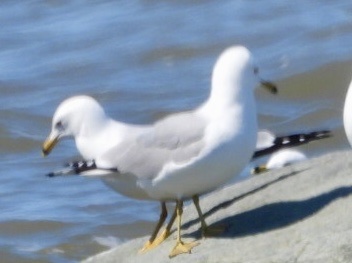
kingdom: Animalia
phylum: Chordata
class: Aves
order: Charadriiformes
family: Laridae
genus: Larus
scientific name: Larus delawarensis
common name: Ring-billed gull
